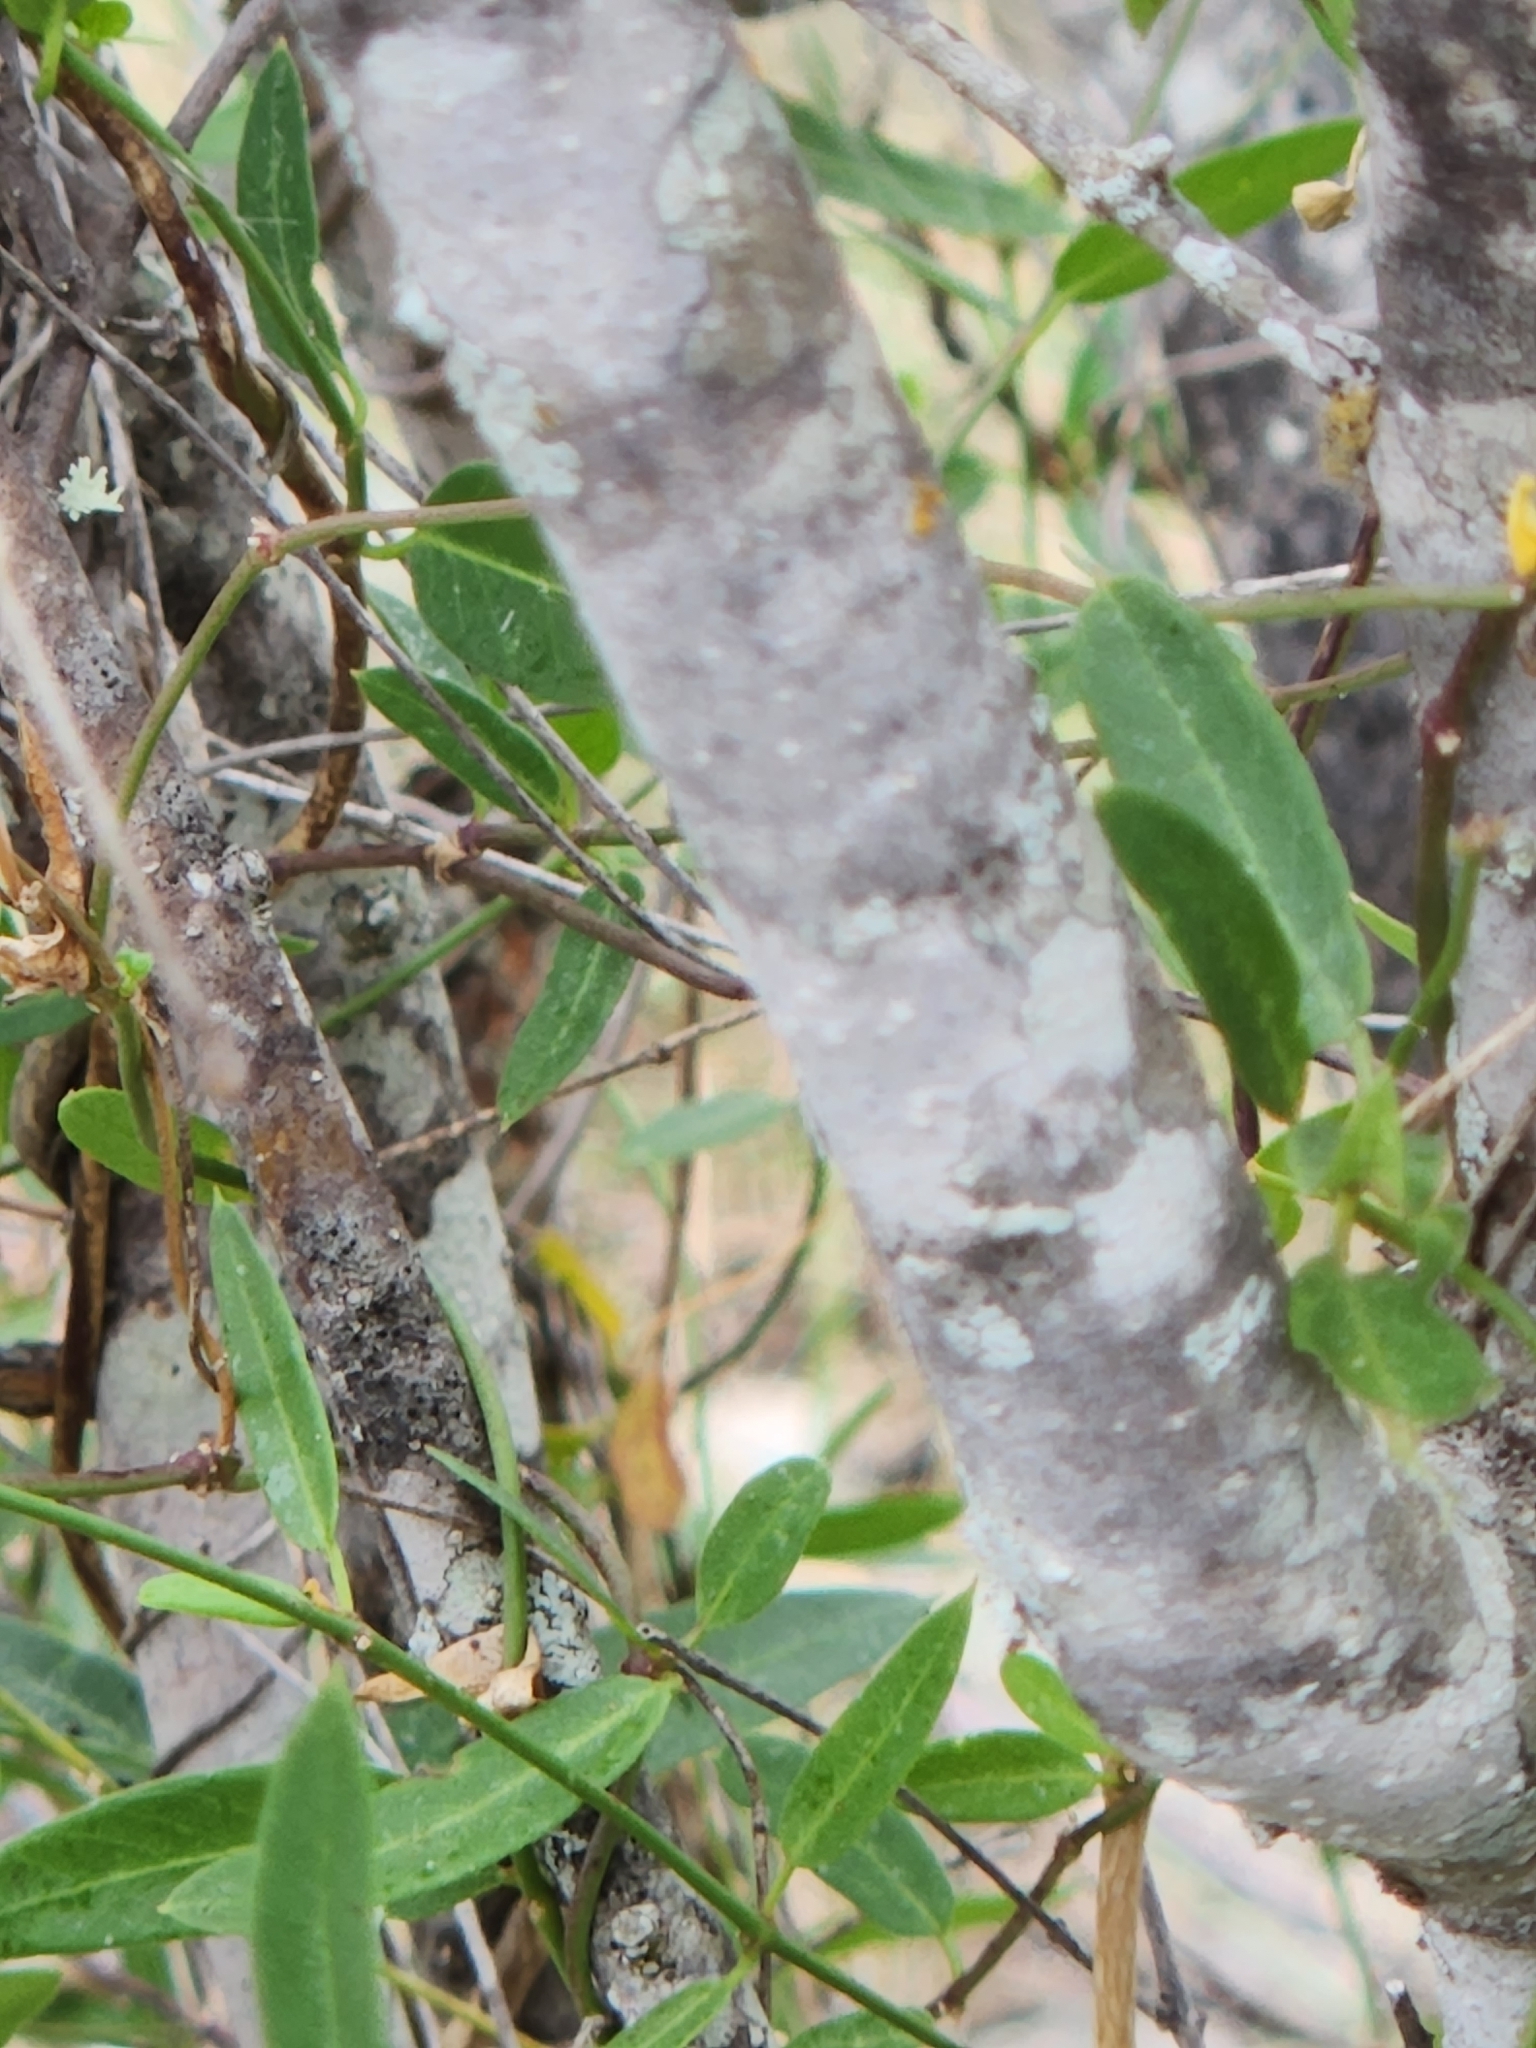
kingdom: Plantae
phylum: Tracheophyta
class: Magnoliopsida
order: Lamiales
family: Oleaceae
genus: Forestiera
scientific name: Forestiera reticulata
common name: Netleaf swamp-privet
